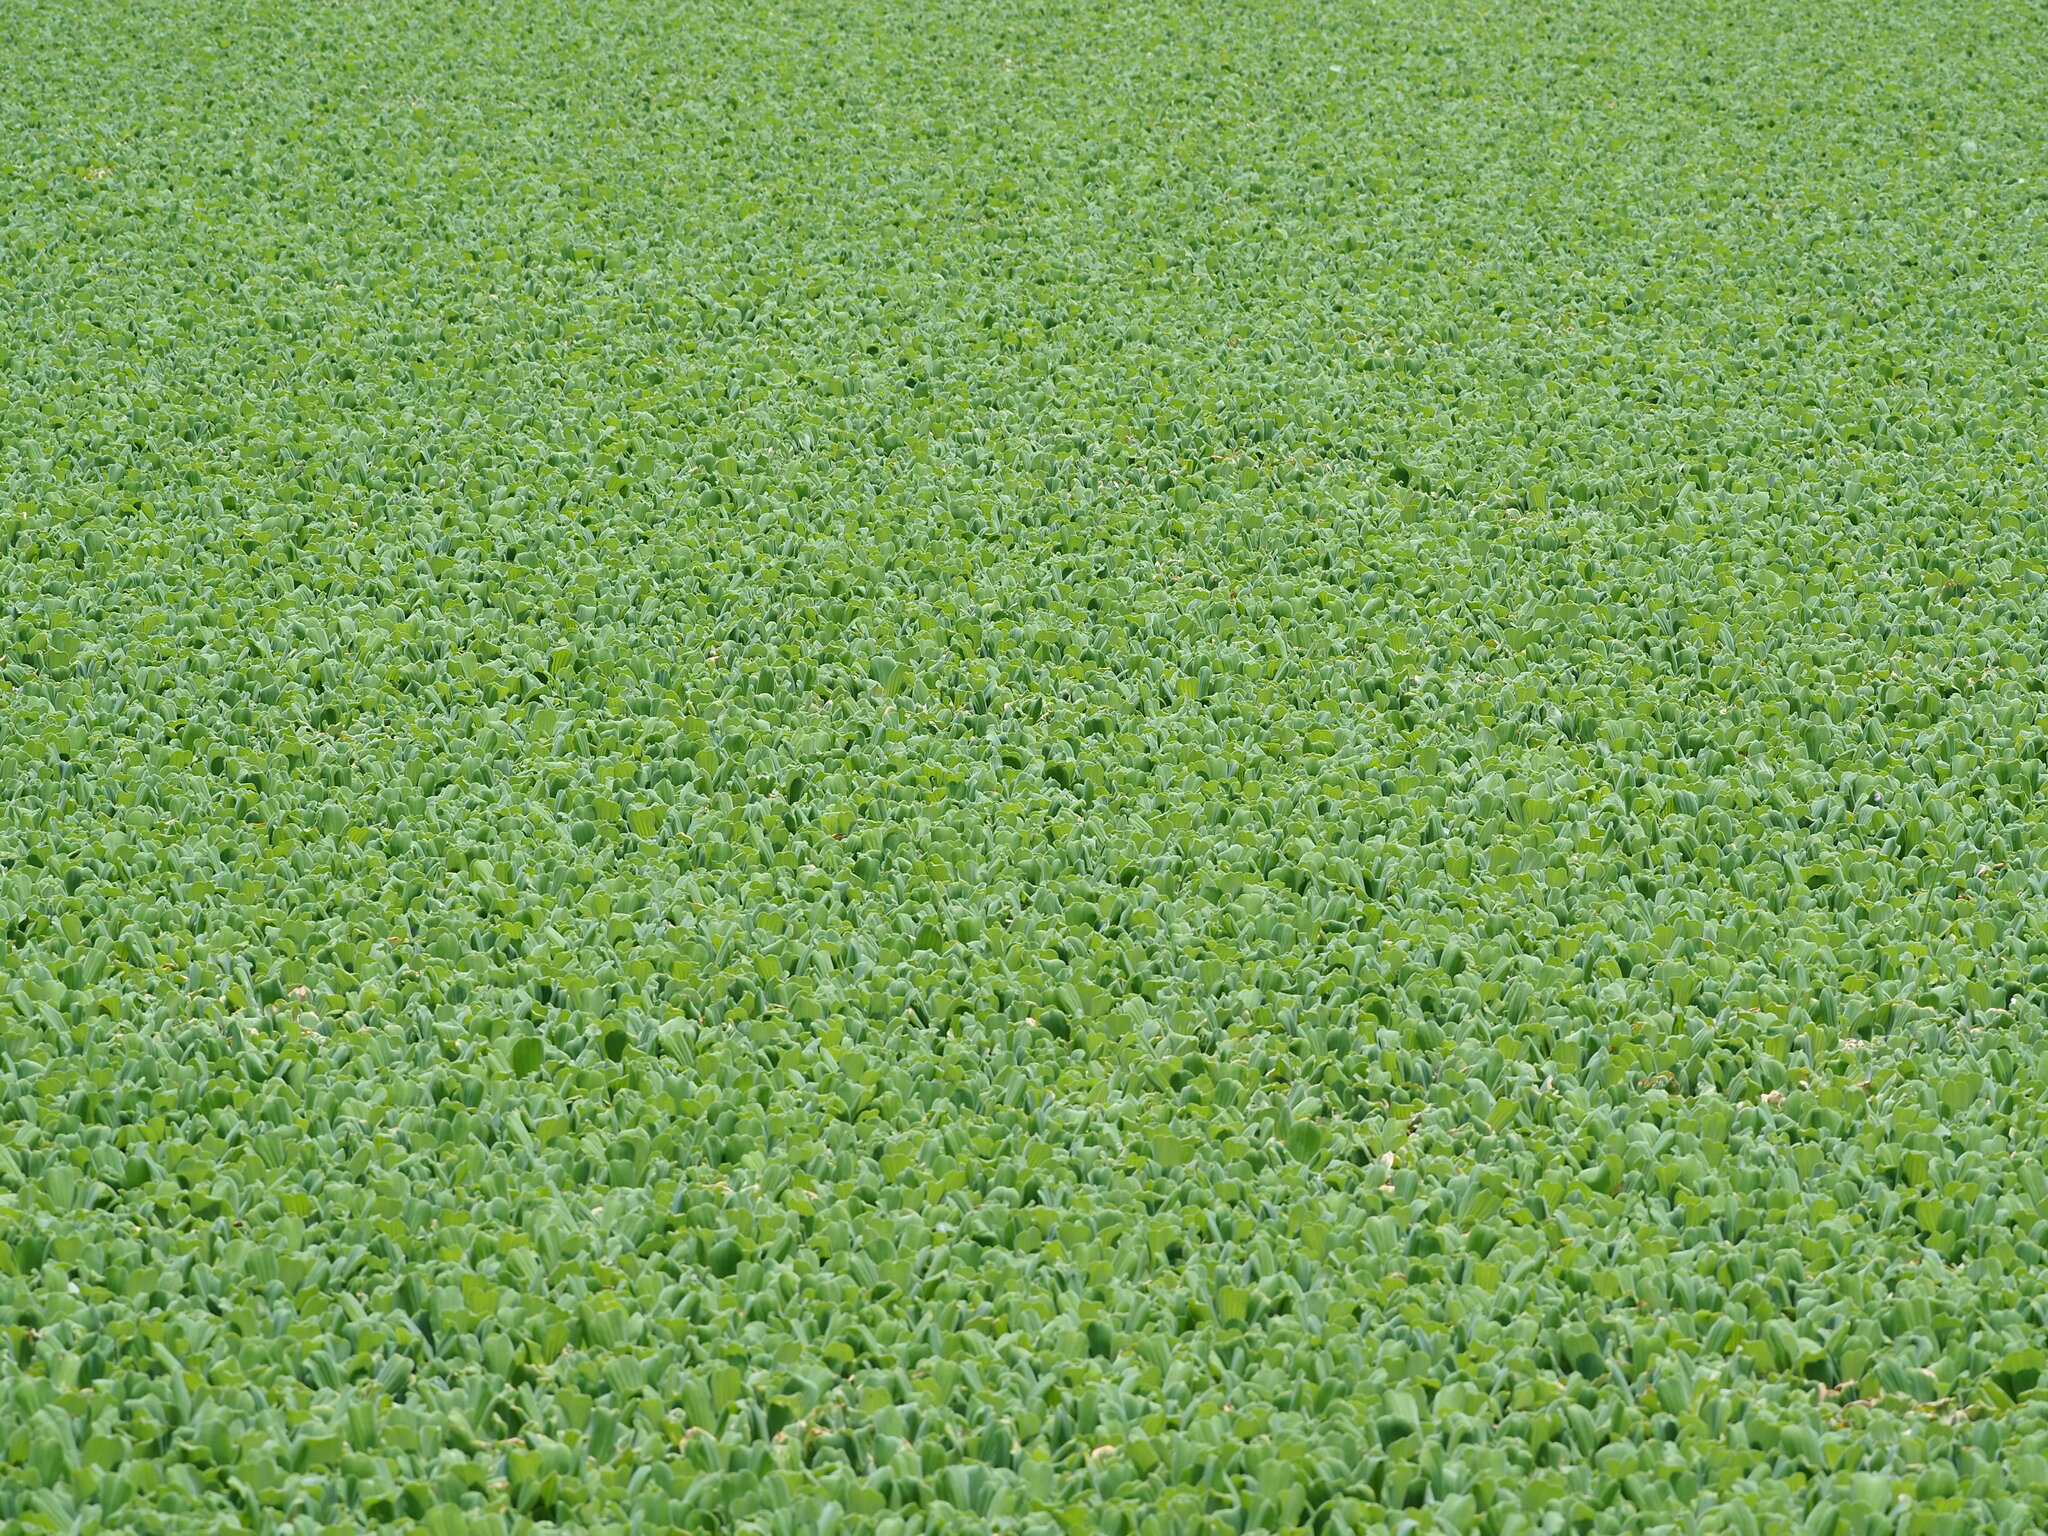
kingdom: Plantae
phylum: Tracheophyta
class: Liliopsida
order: Alismatales
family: Araceae
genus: Pistia
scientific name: Pistia stratiotes
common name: Water lettuce
